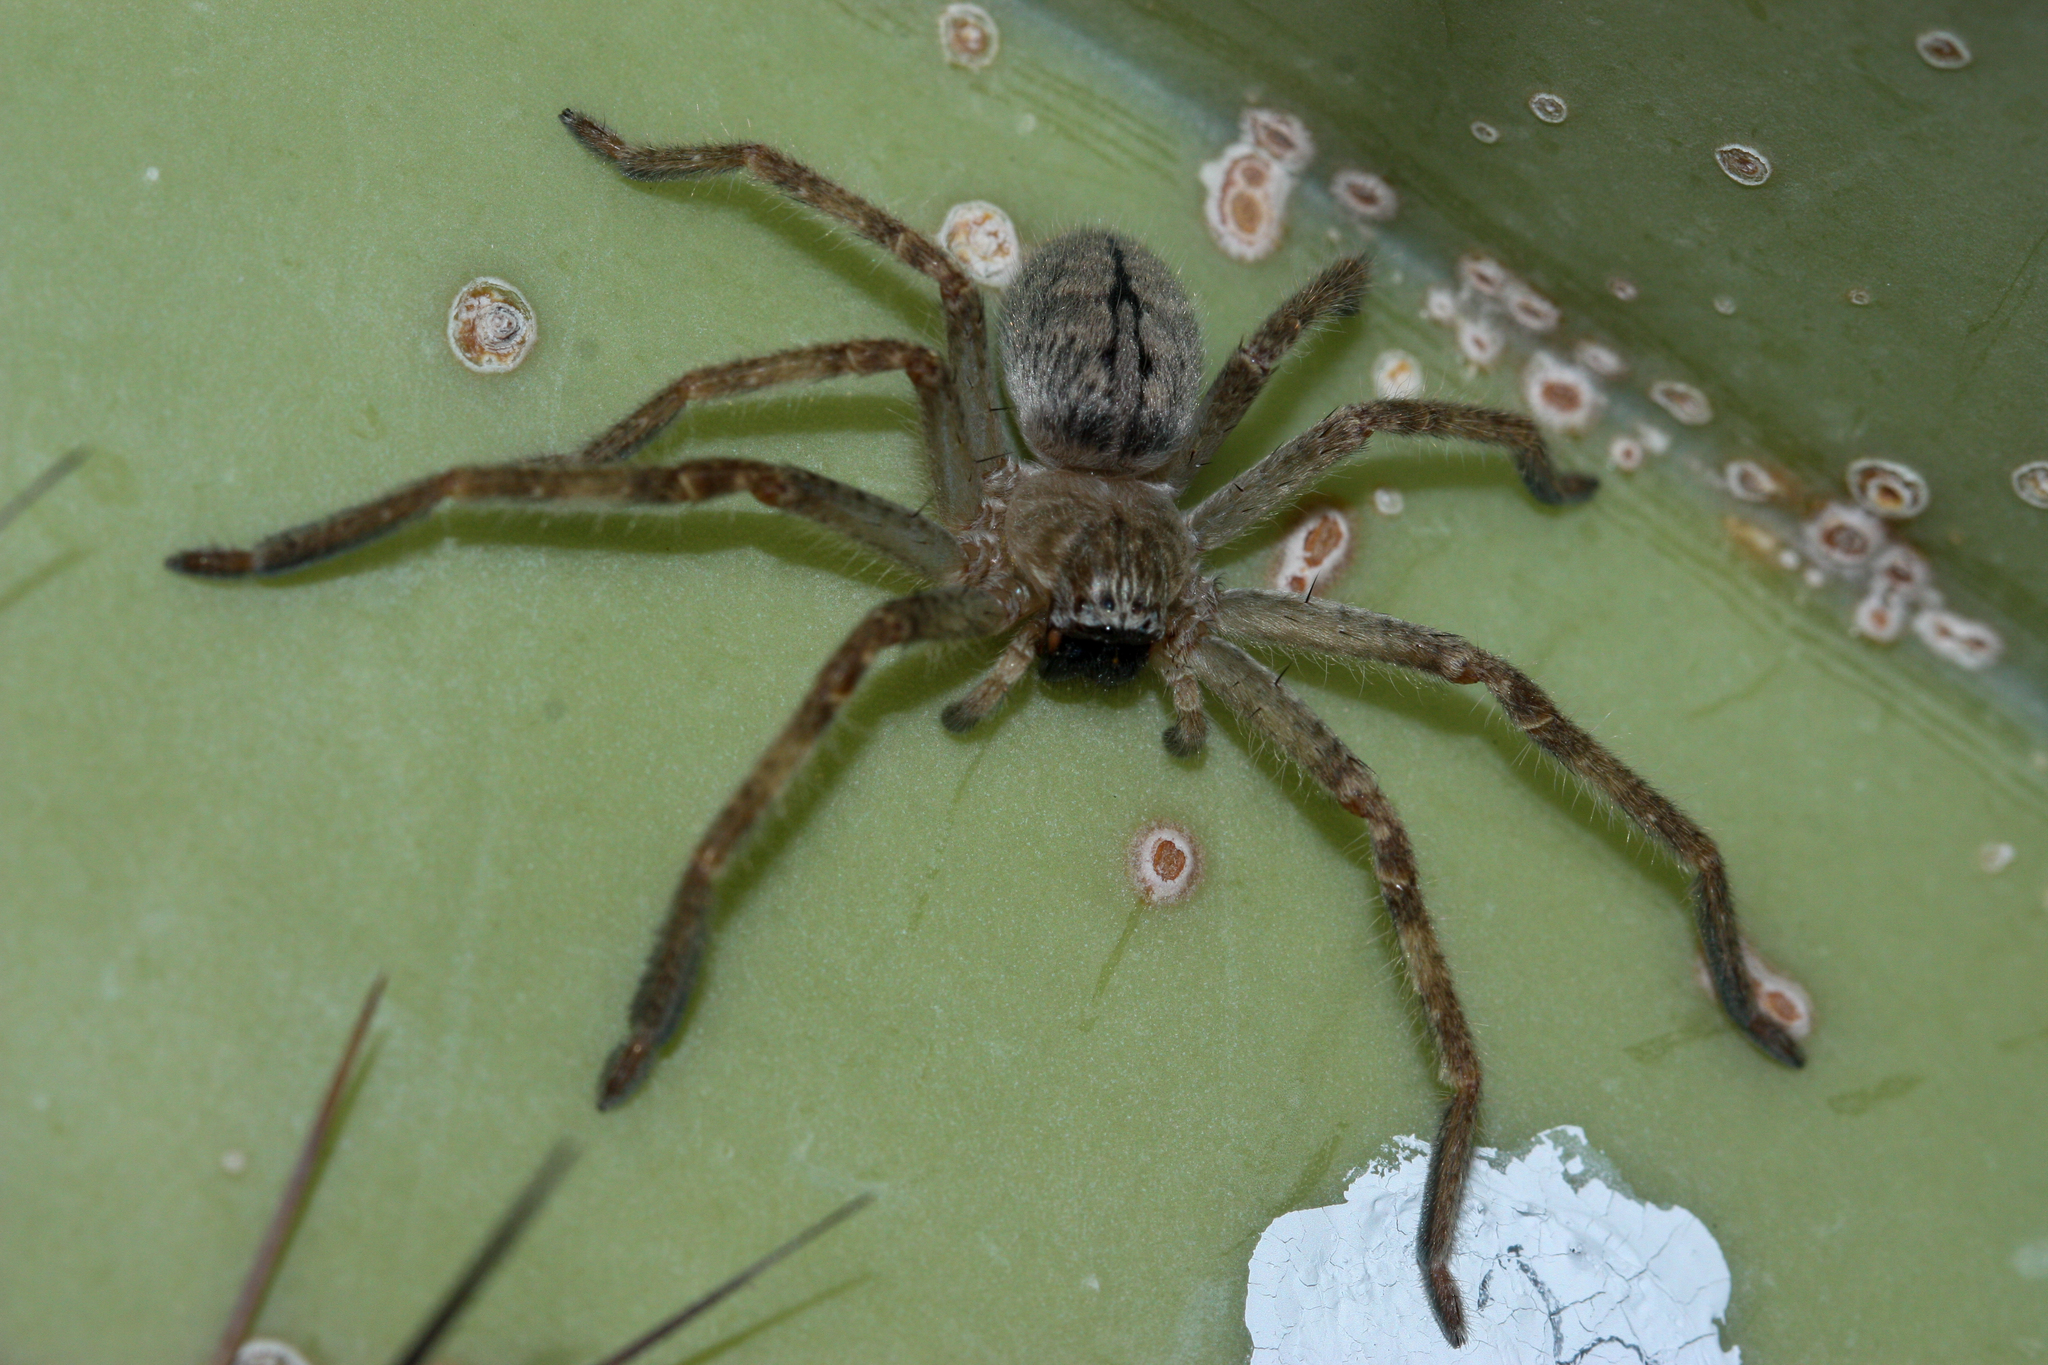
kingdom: Animalia
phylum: Arthropoda
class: Arachnida
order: Araneae
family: Sparassidae
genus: Olios
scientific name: Olios giganteus
